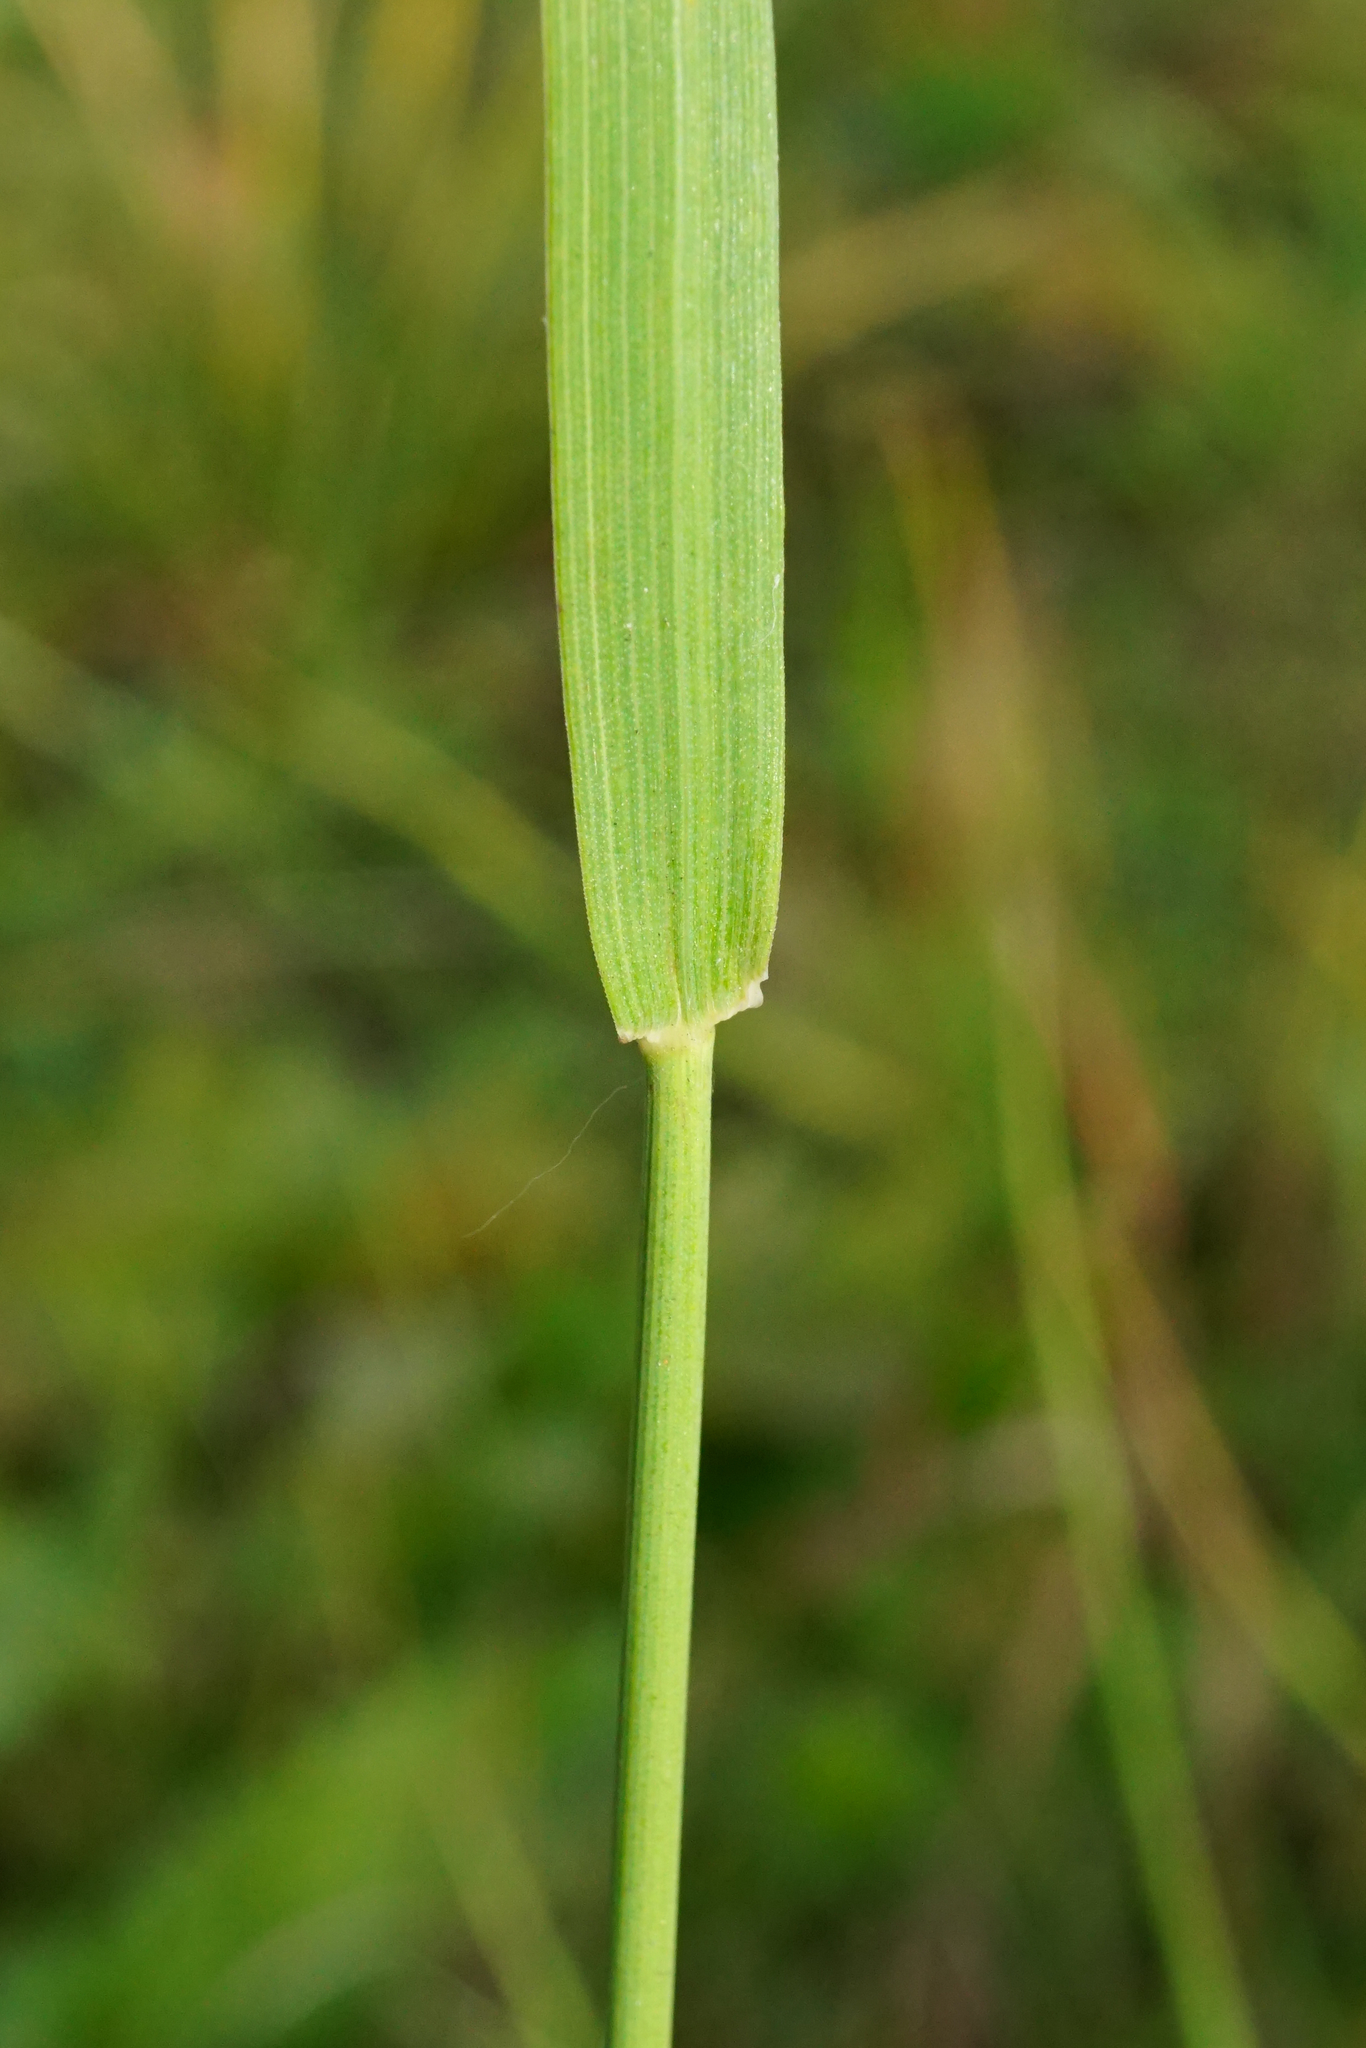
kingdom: Plantae
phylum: Tracheophyta
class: Liliopsida
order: Poales
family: Poaceae
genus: Arrhenatherum
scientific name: Arrhenatherum elatius
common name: Tall oatgrass
